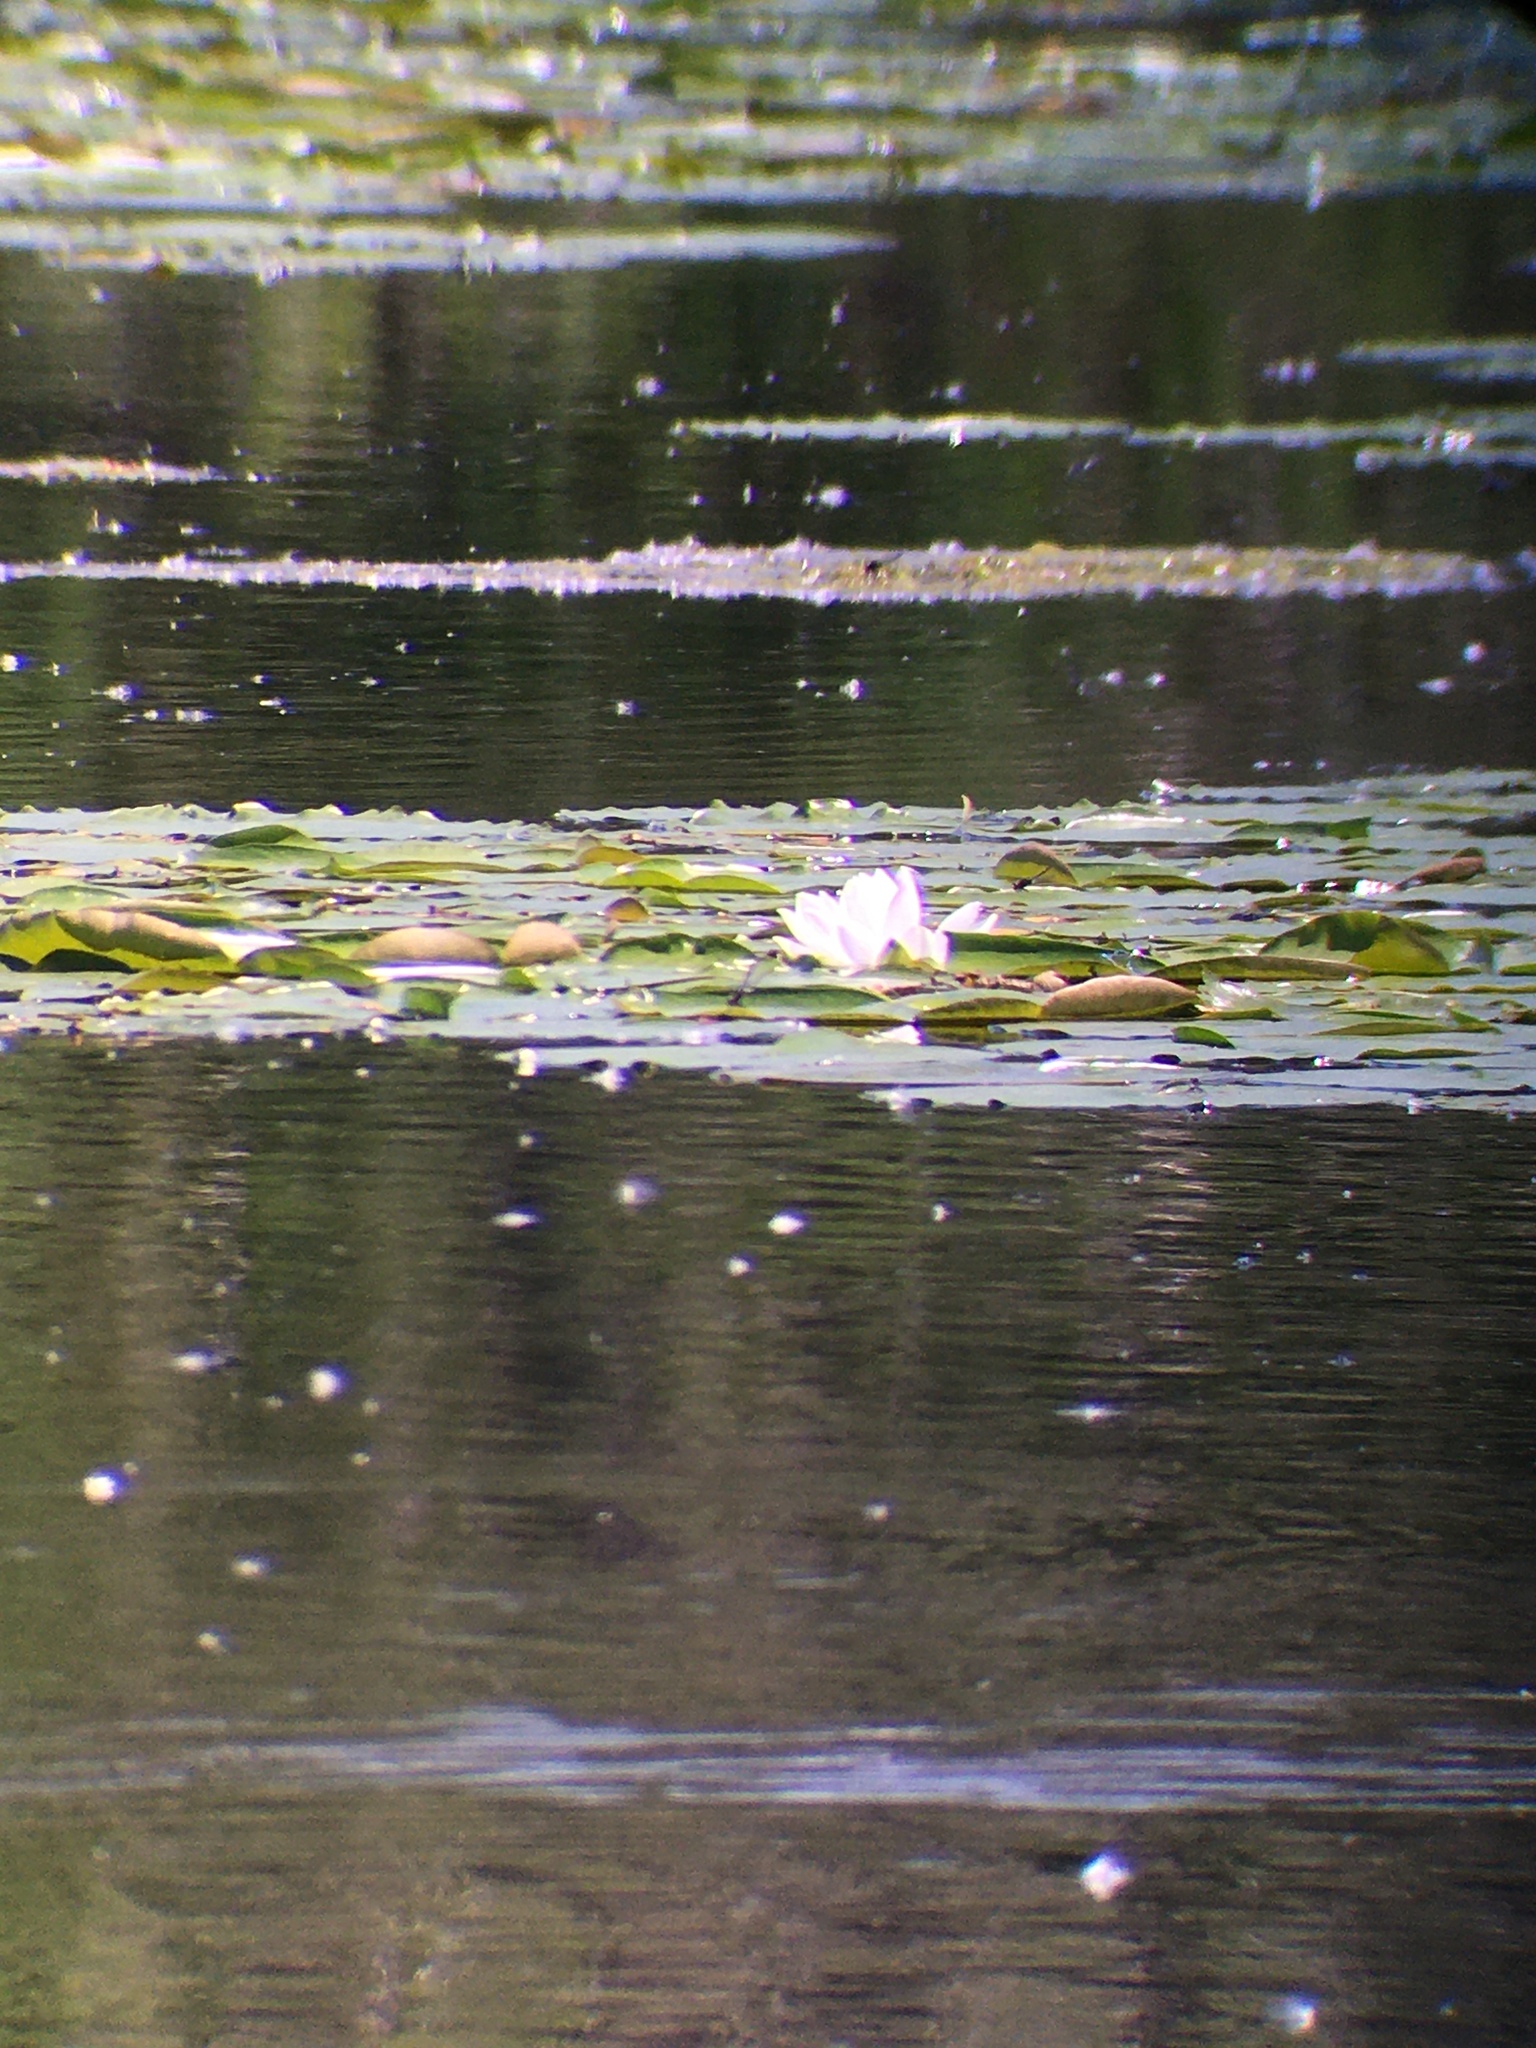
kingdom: Plantae
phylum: Tracheophyta
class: Magnoliopsida
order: Nymphaeales
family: Nymphaeaceae
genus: Nymphaea
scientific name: Nymphaea odorata
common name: Fragrant water-lily
